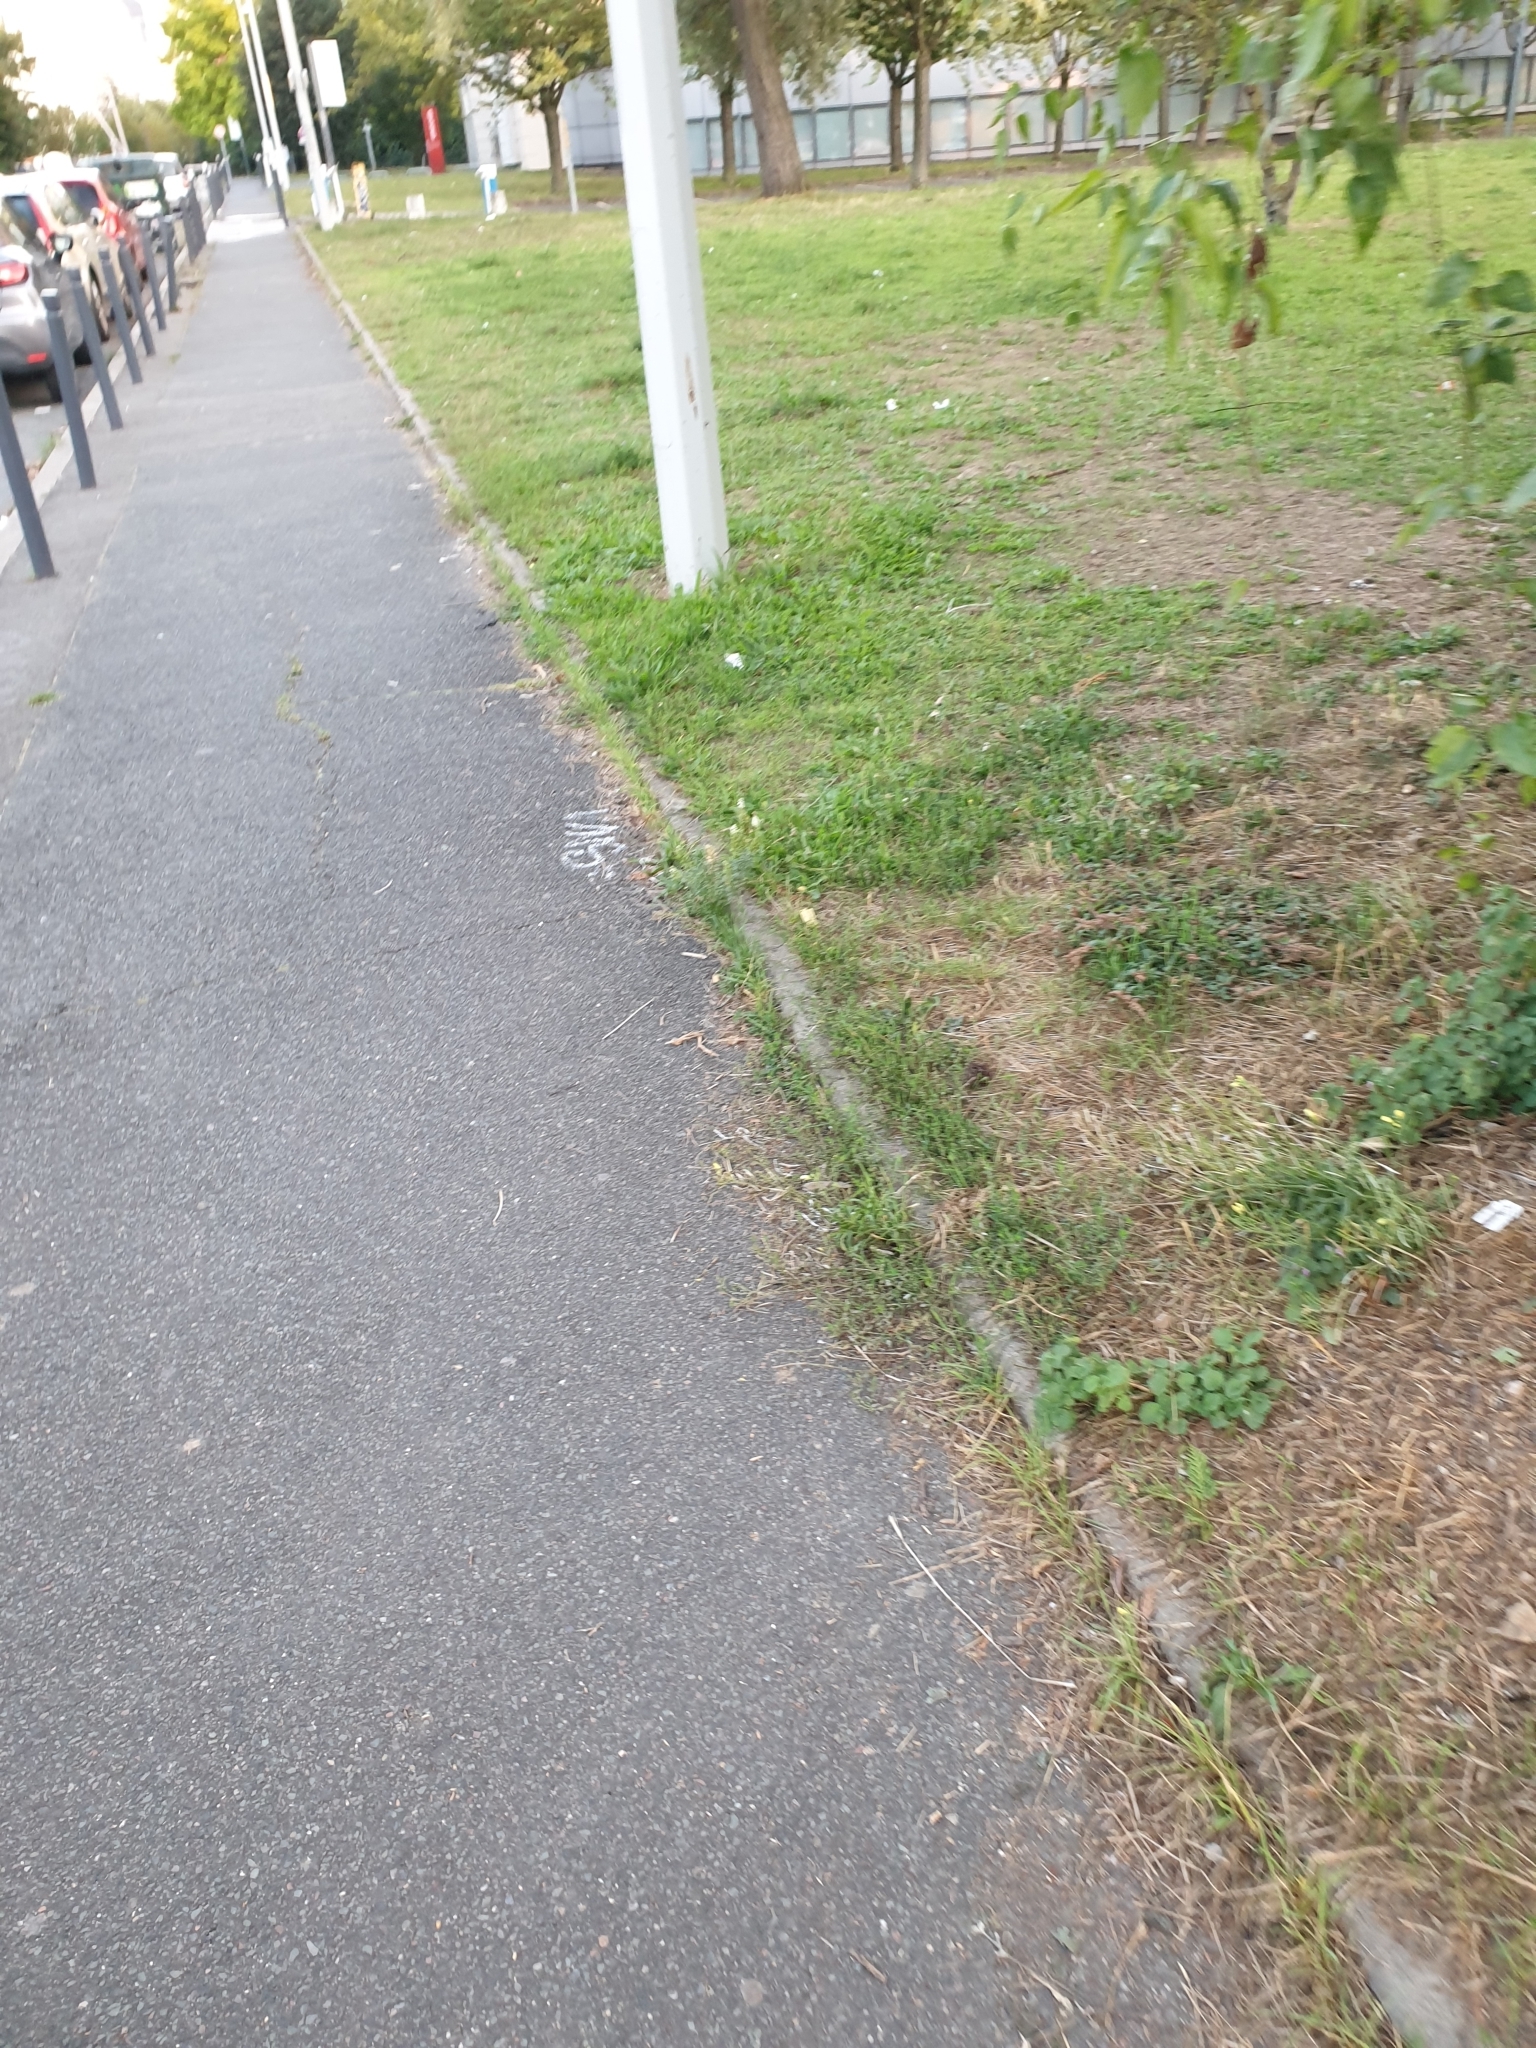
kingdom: Plantae
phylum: Tracheophyta
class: Magnoliopsida
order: Brassicales
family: Resedaceae
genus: Reseda
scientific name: Reseda lutea
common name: Wild mignonette
